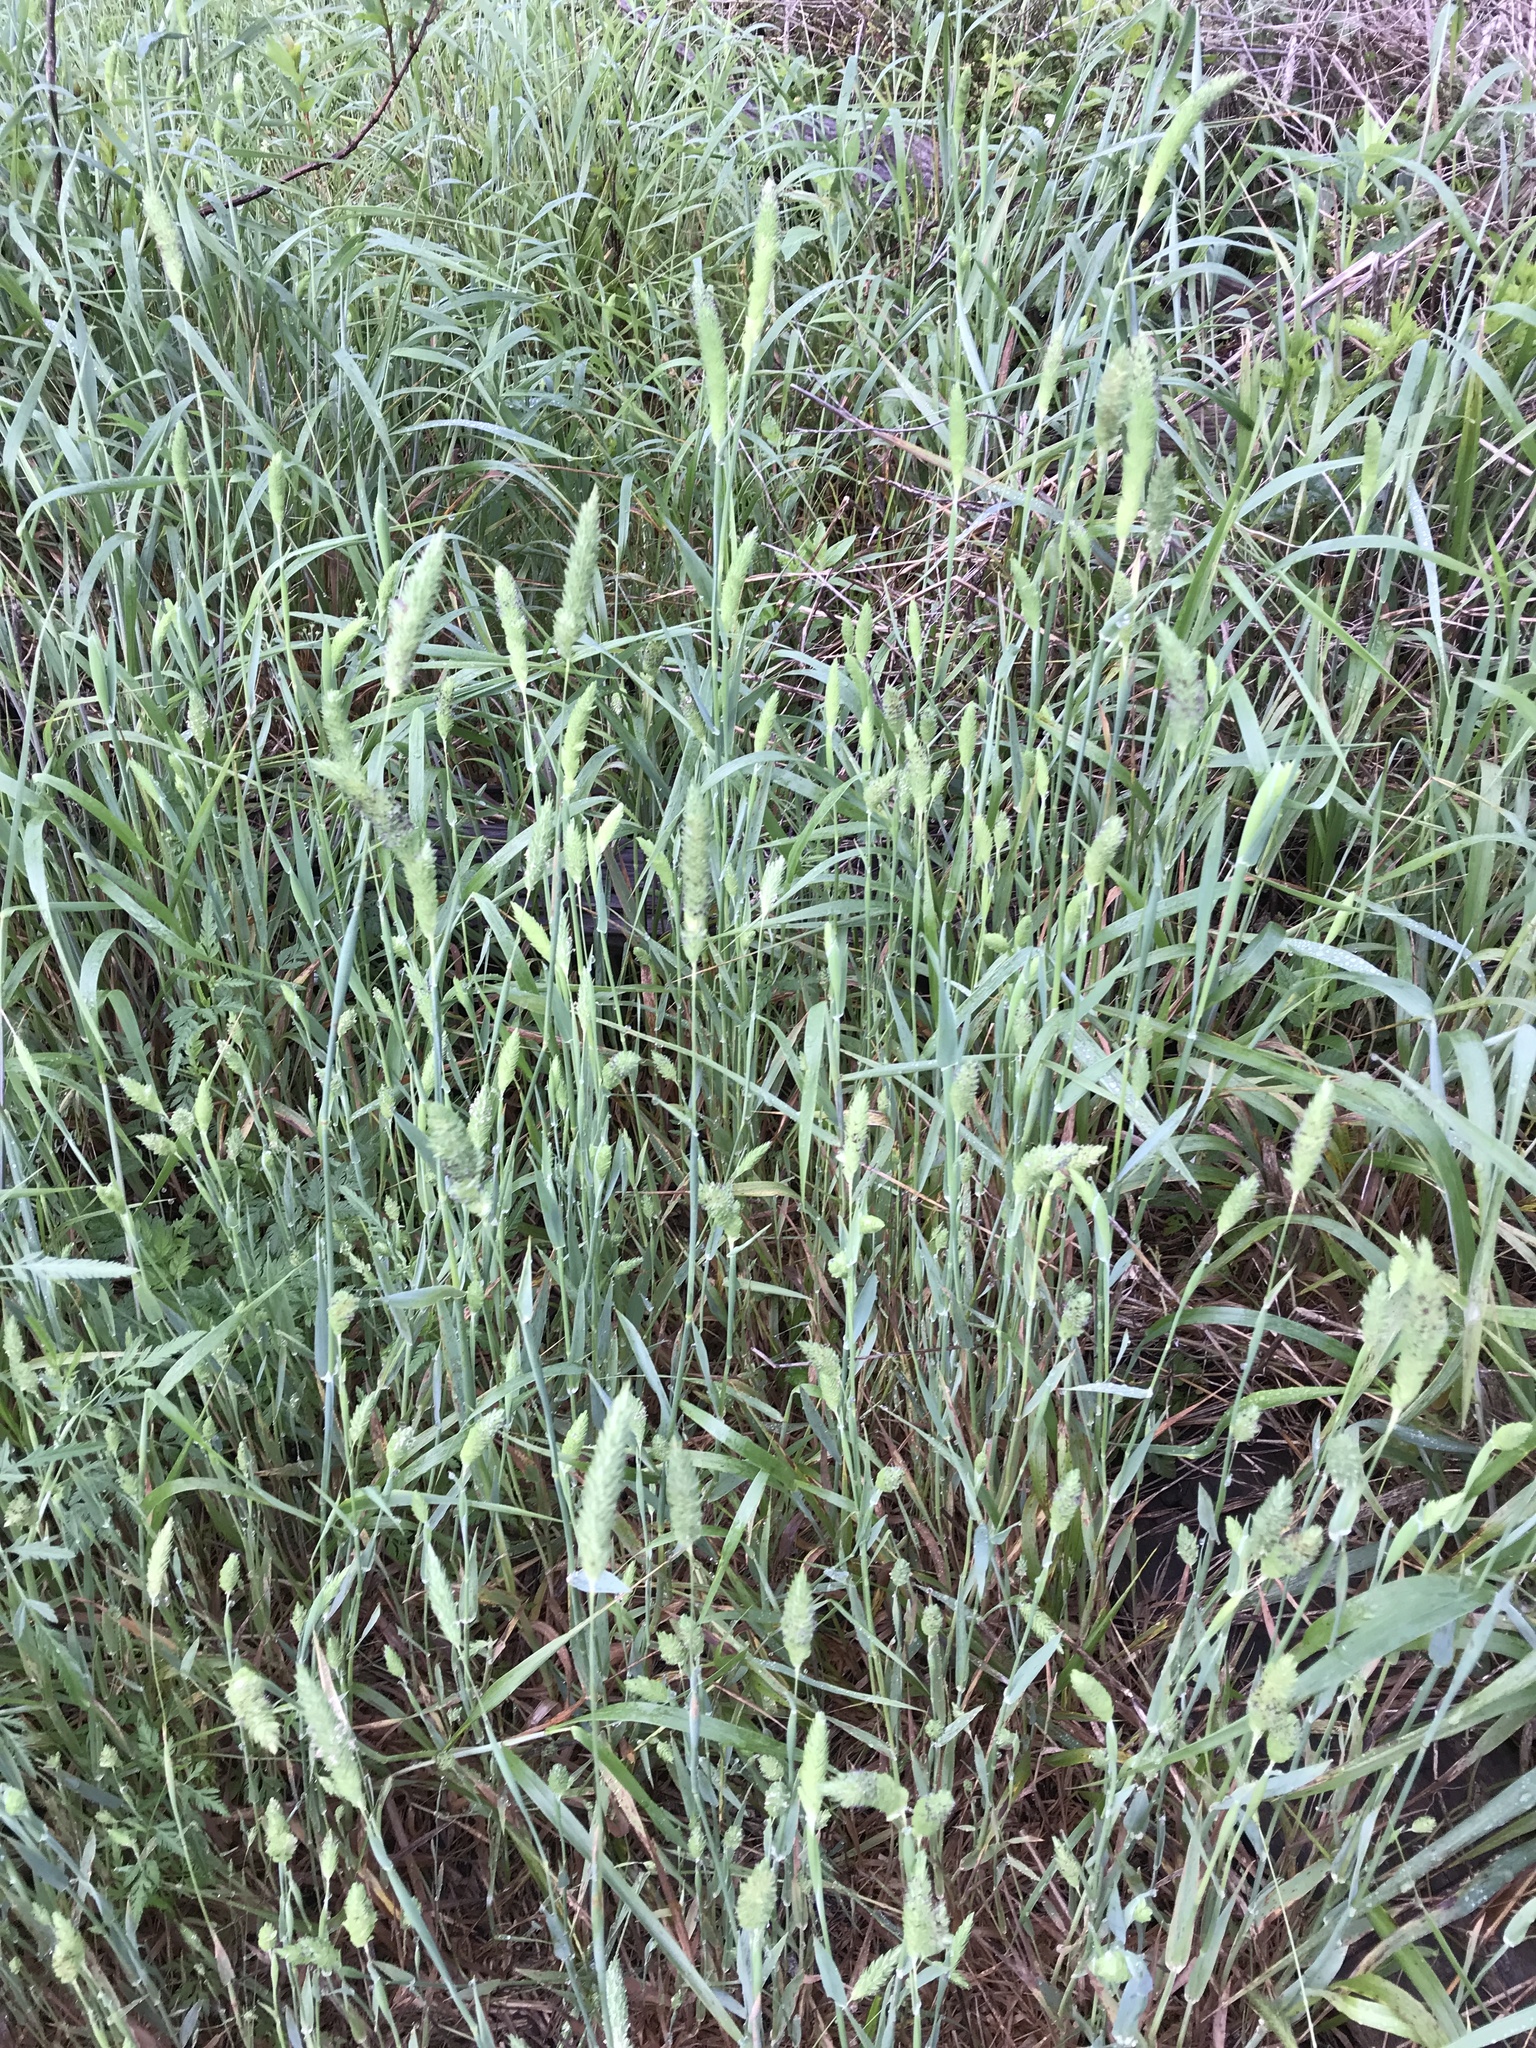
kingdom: Plantae
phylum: Tracheophyta
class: Liliopsida
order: Poales
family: Poaceae
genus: Phalaris
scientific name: Phalaris caroliniana
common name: May grass
